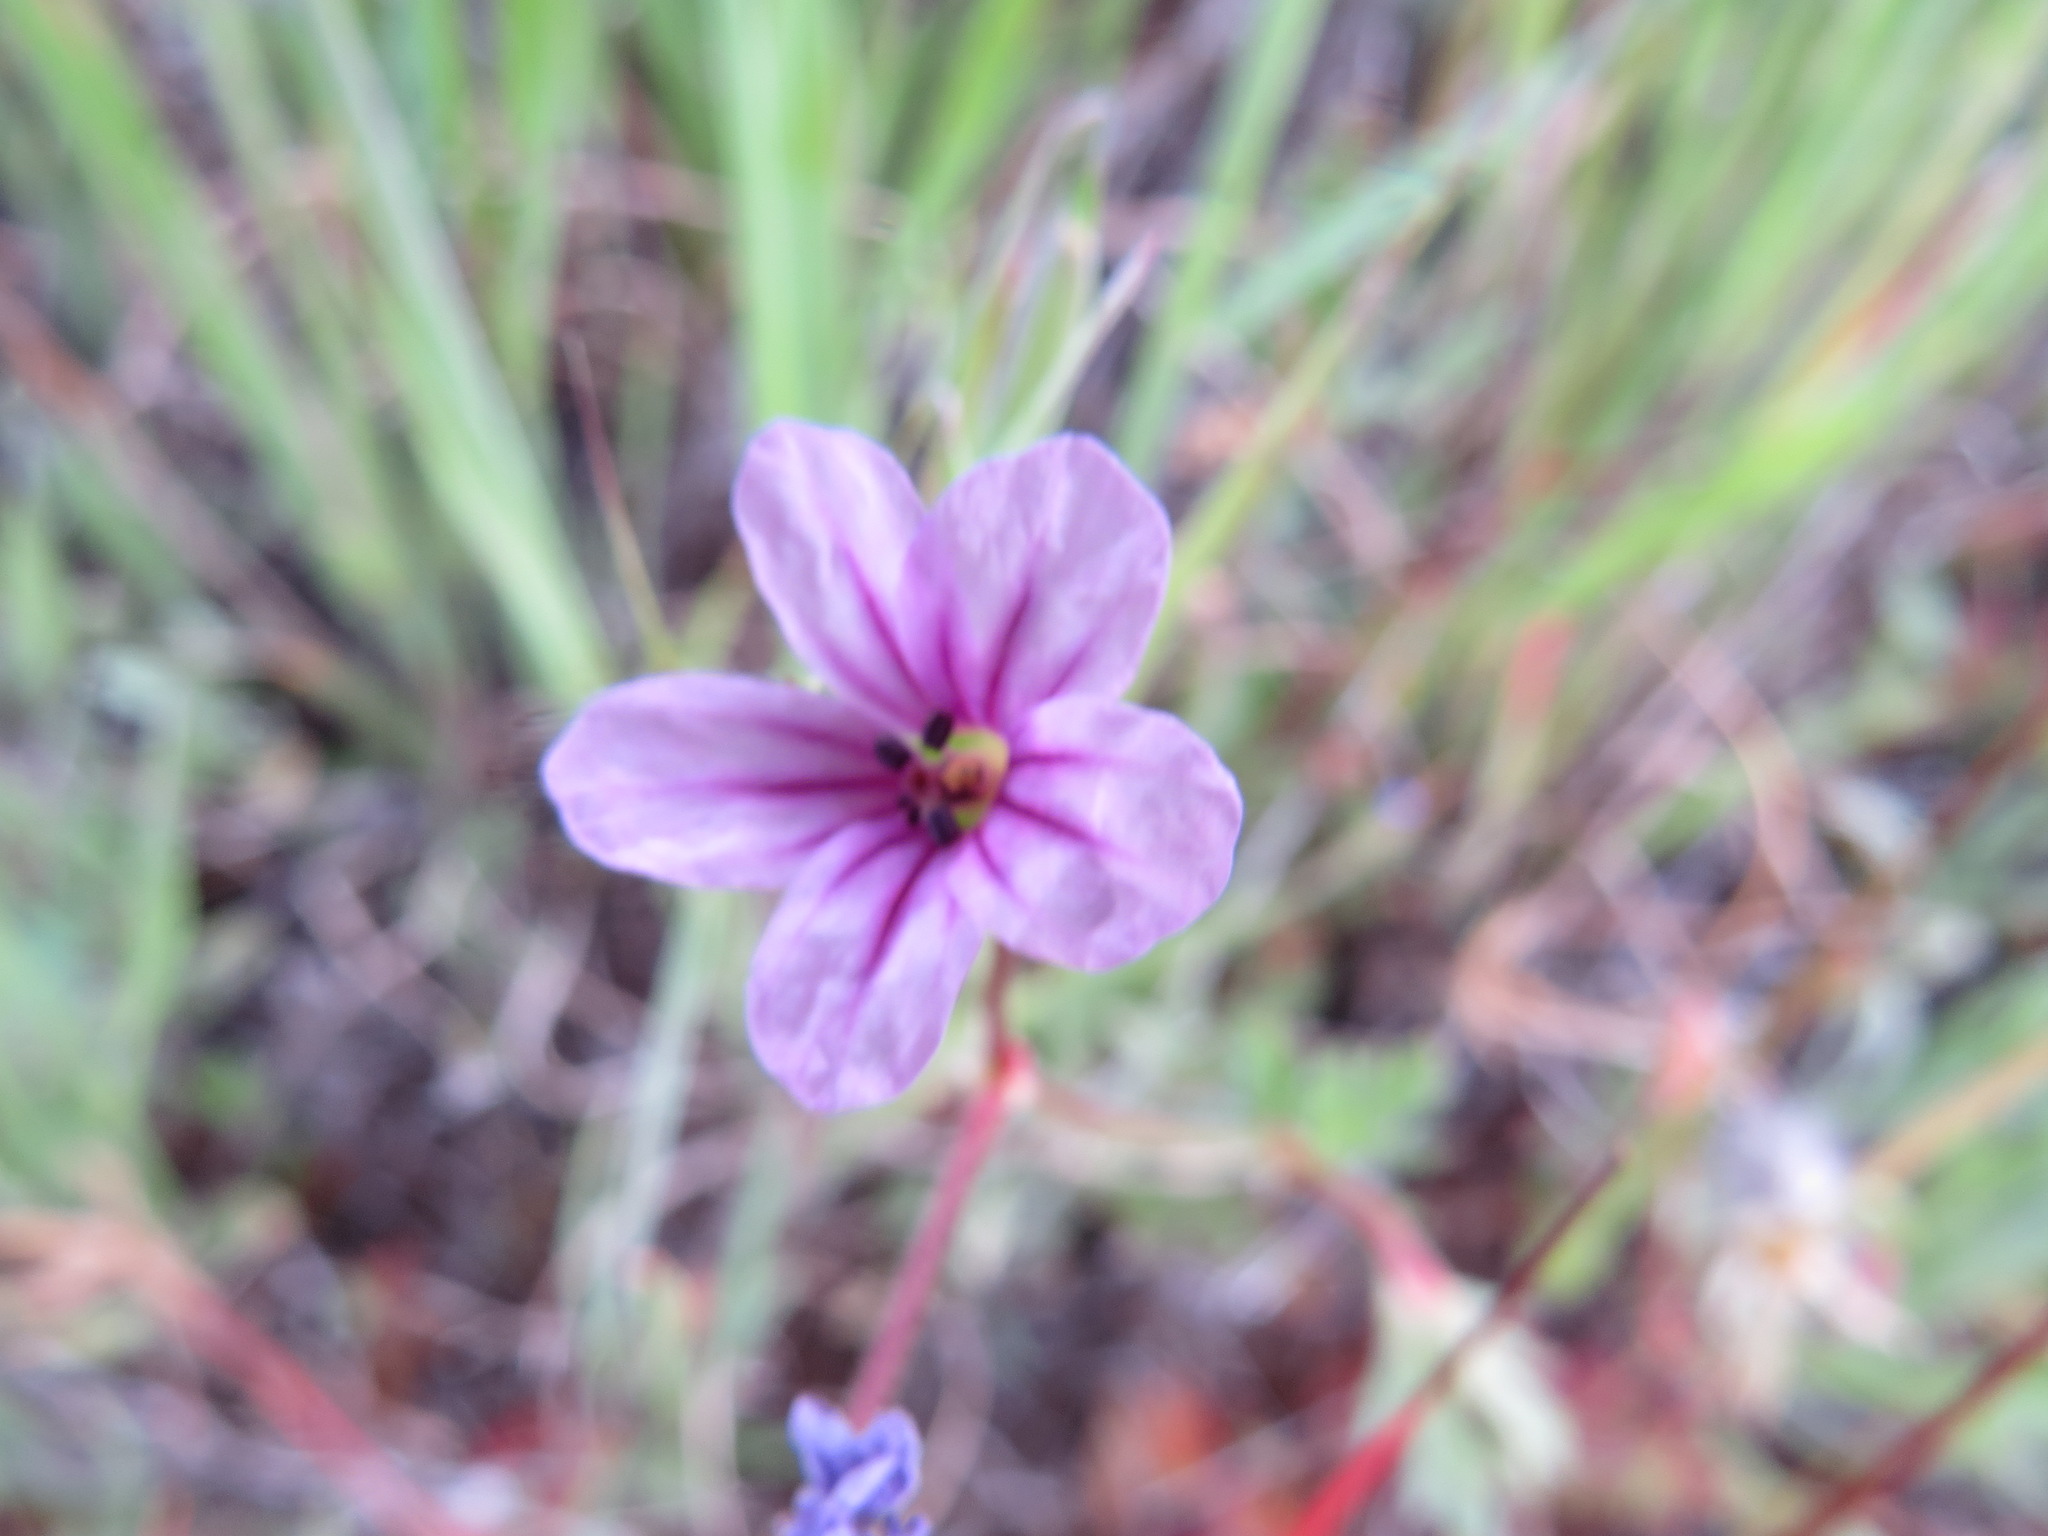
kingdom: Plantae
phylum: Tracheophyta
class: Magnoliopsida
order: Geraniales
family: Geraniaceae
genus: Erodium
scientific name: Erodium botrys
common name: Mediterranean stork's-bill
